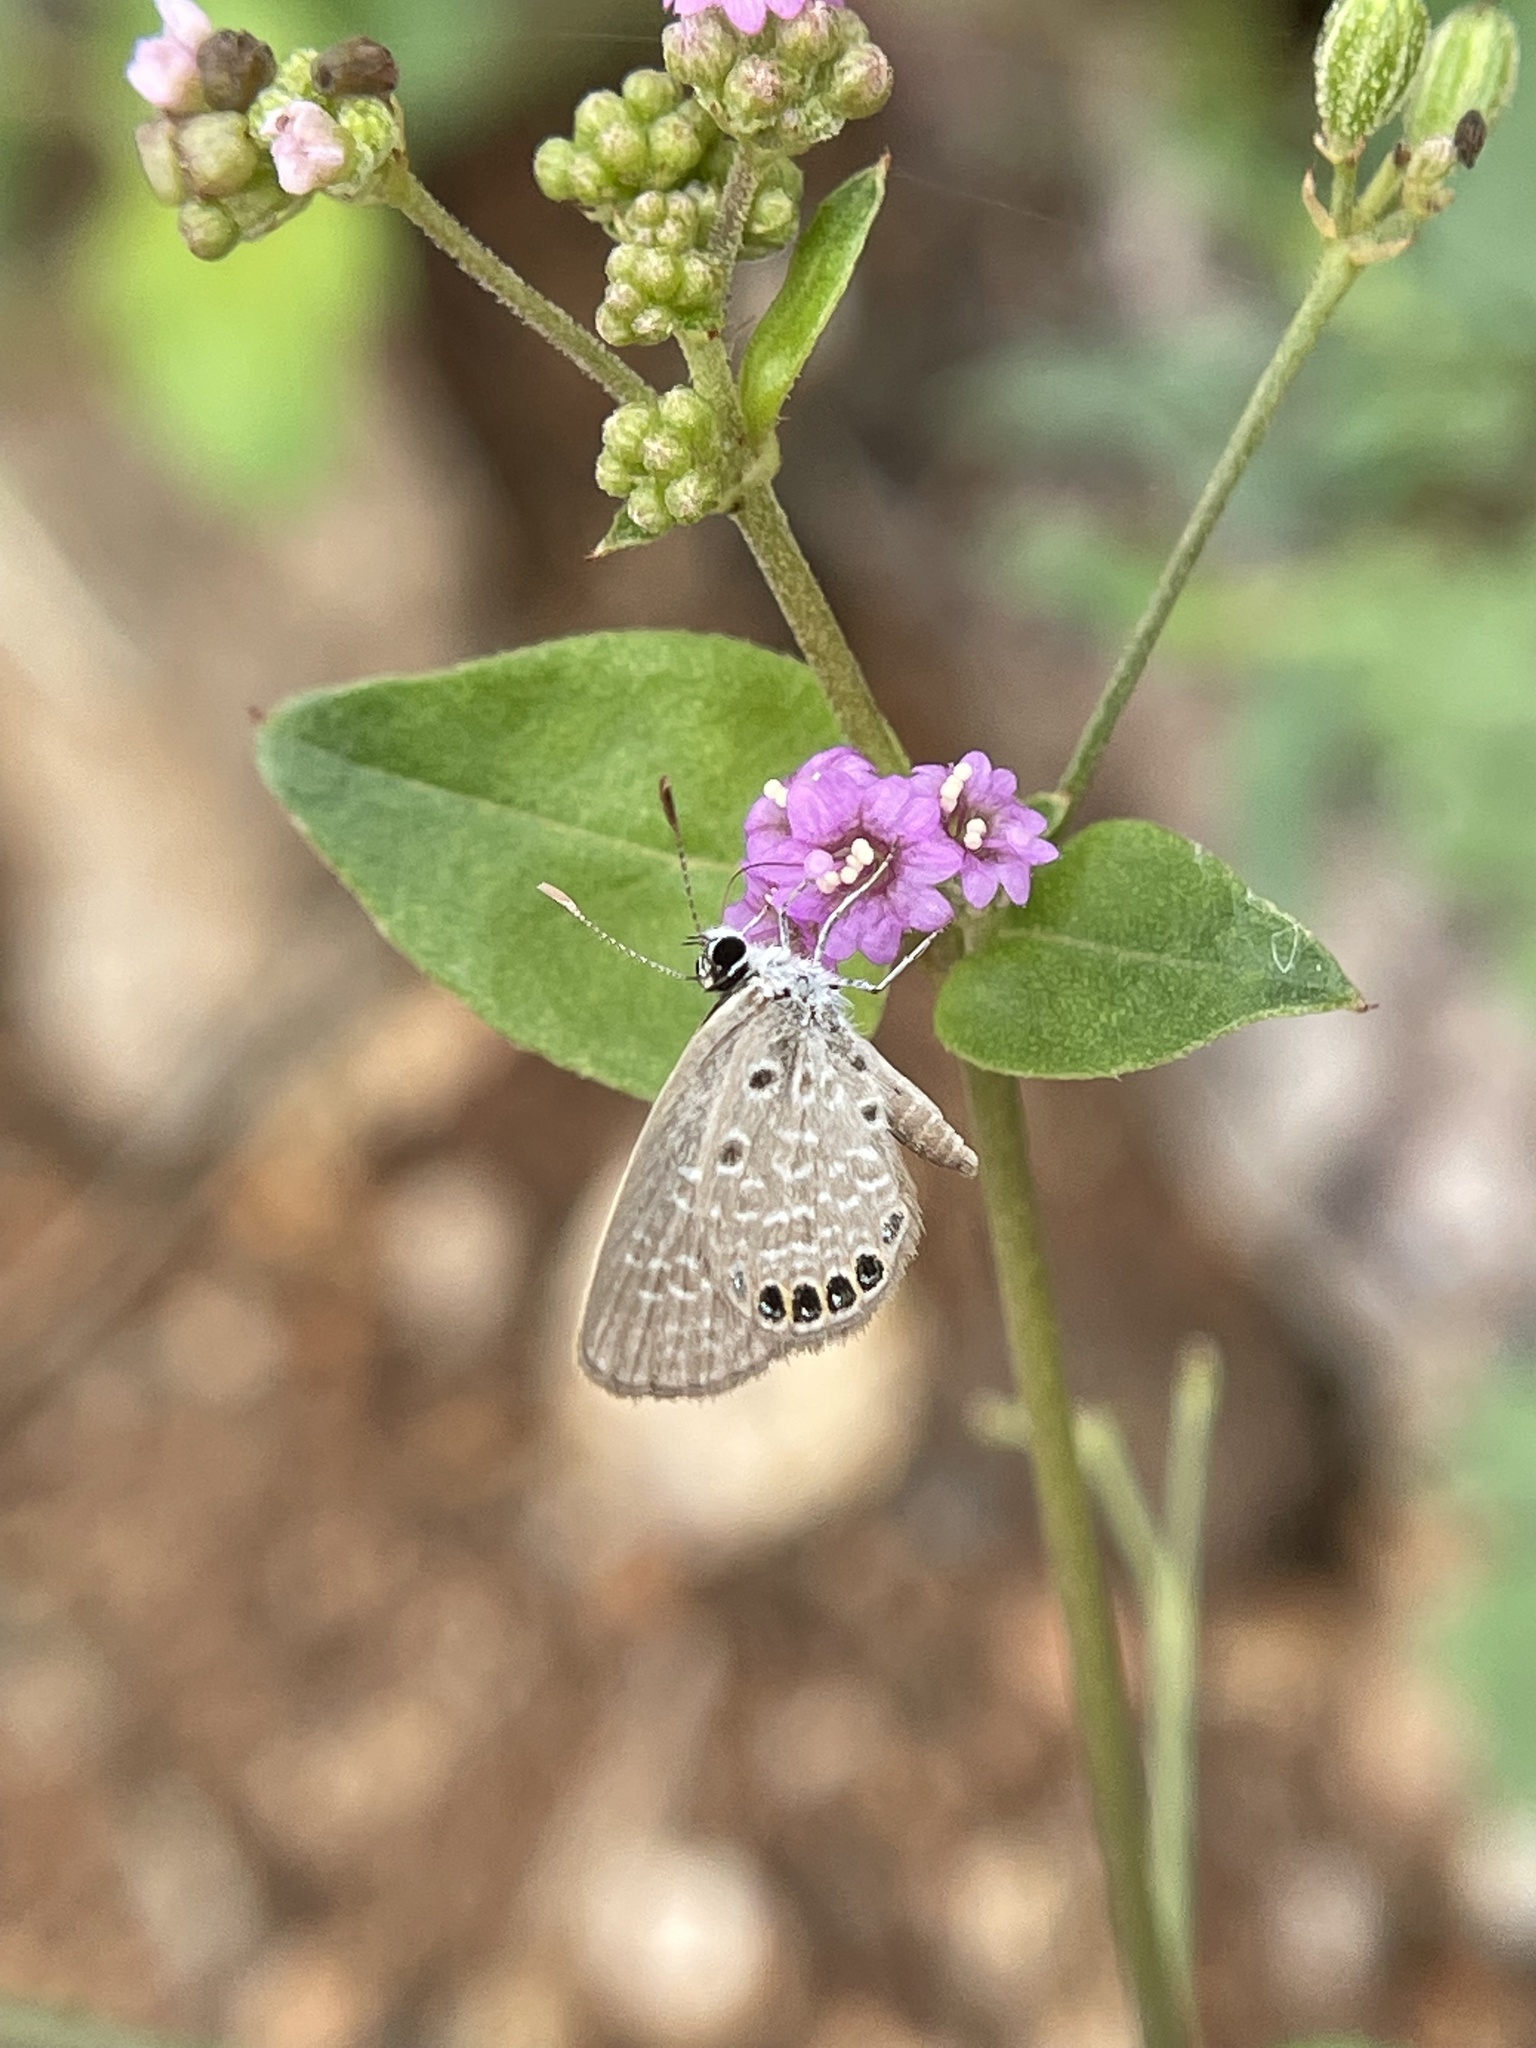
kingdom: Plantae
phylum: Tracheophyta
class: Magnoliopsida
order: Caryophyllales
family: Nyctaginaceae
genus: Boerhavia
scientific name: Boerhavia diffusa
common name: Red spiderling
